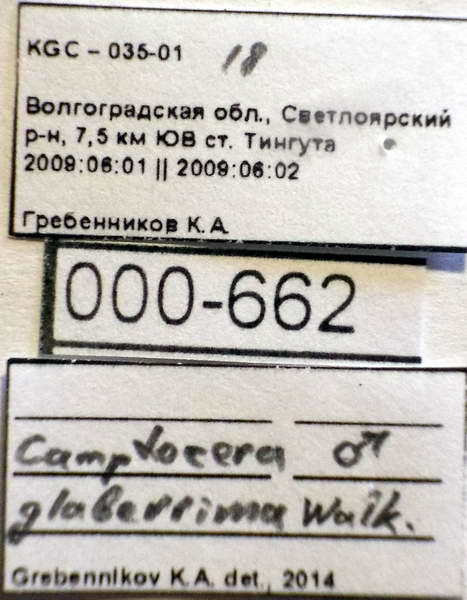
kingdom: Animalia
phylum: Arthropoda
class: Insecta
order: Hemiptera
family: Rhyparochromidae
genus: Camptocera
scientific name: Camptocera glaberrima
